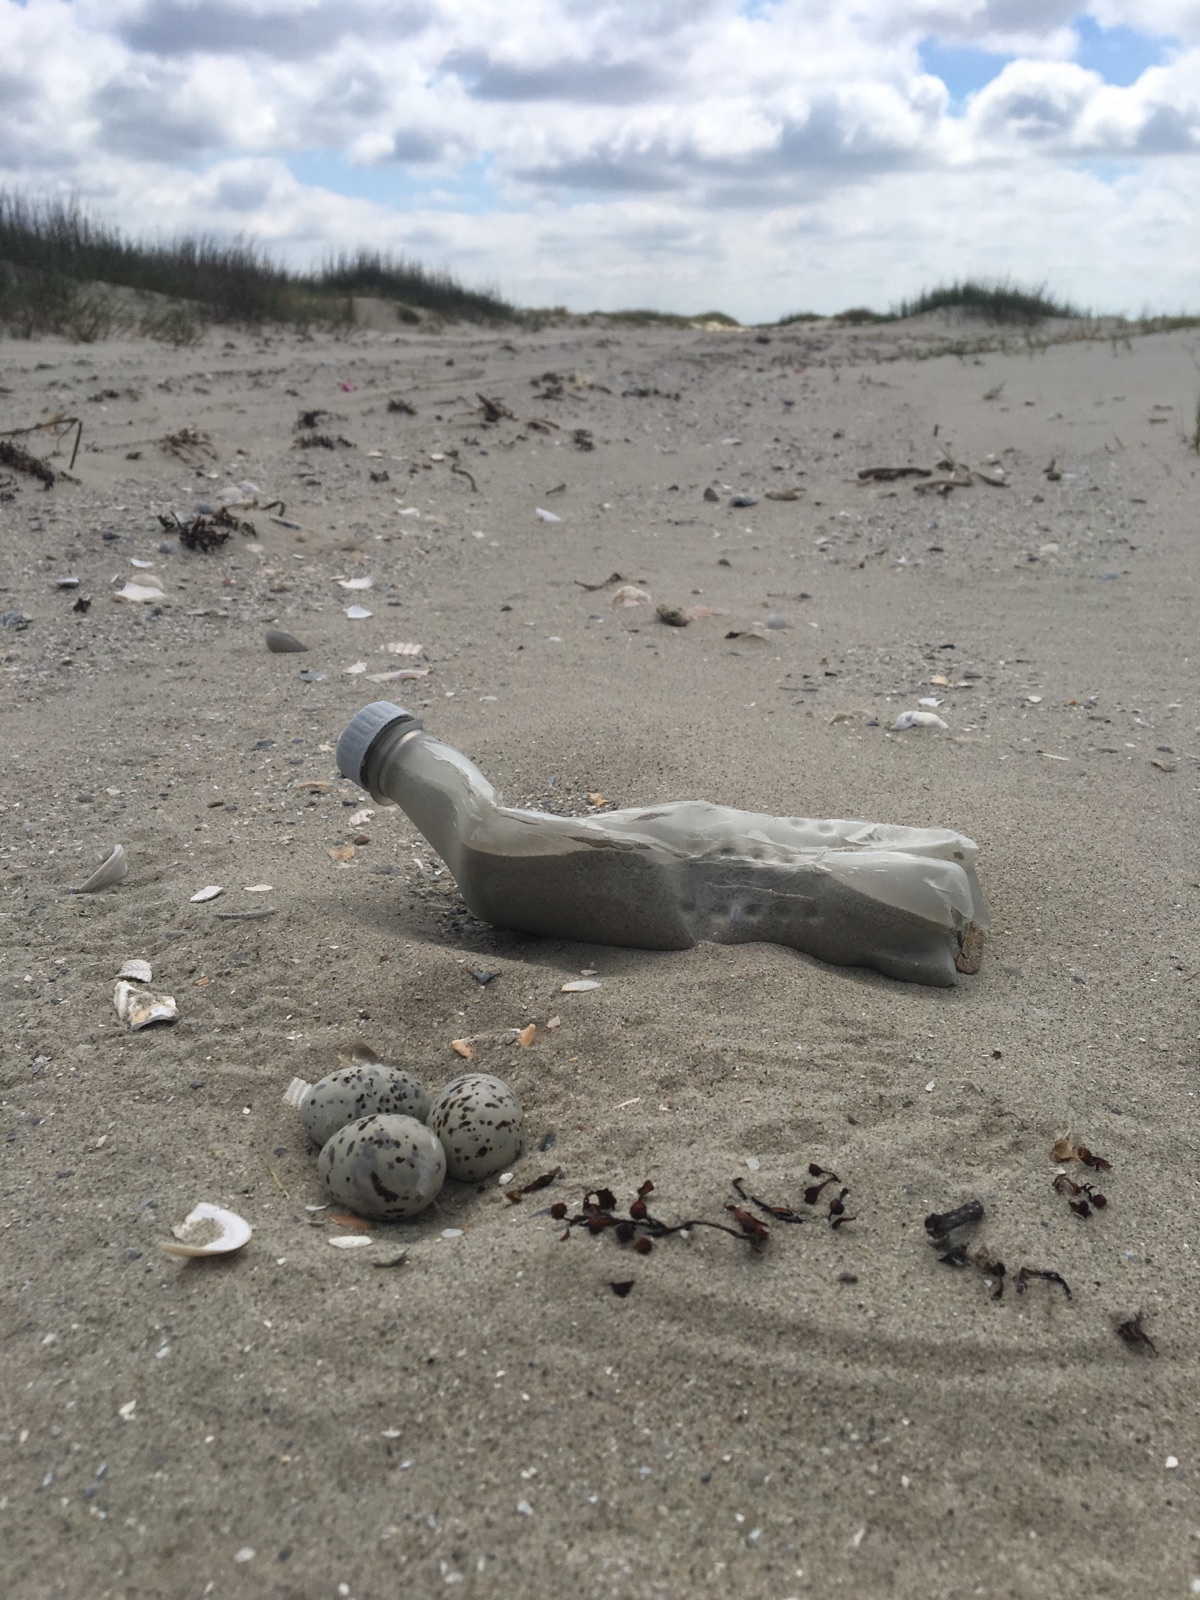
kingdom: Animalia
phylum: Chordata
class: Aves
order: Charadriiformes
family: Laridae
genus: Sternula
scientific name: Sternula antillarum
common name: Least tern
